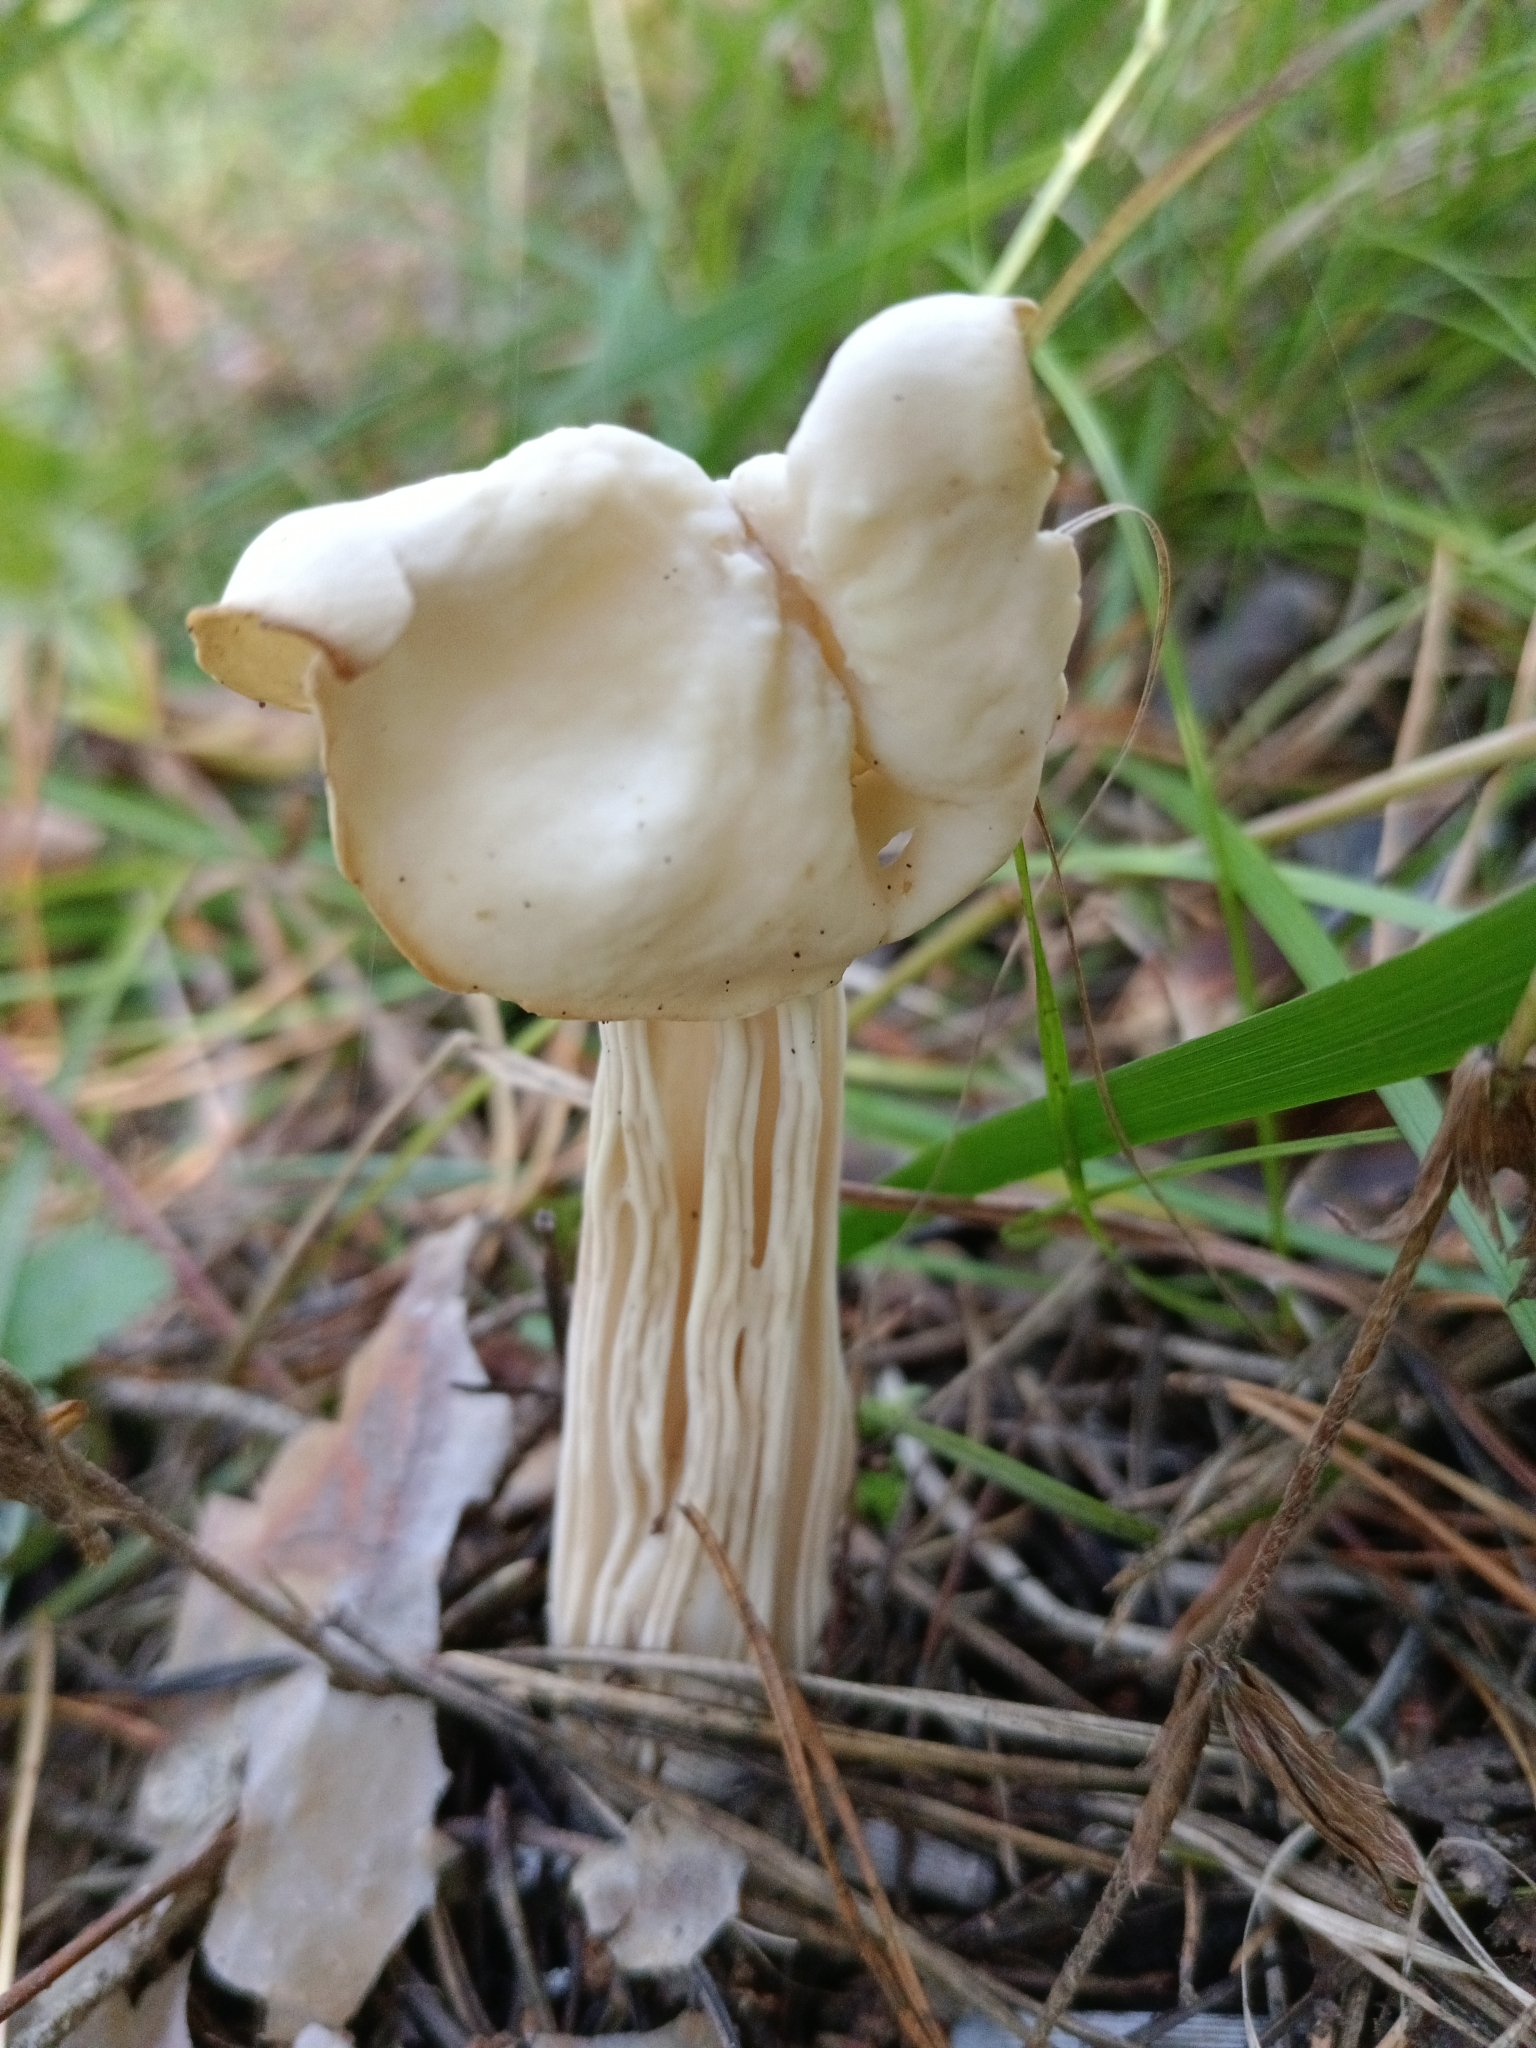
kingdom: Fungi
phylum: Ascomycota
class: Pezizomycetes
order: Pezizales
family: Helvellaceae
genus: Helvella
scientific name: Helvella crispa
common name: White saddle
